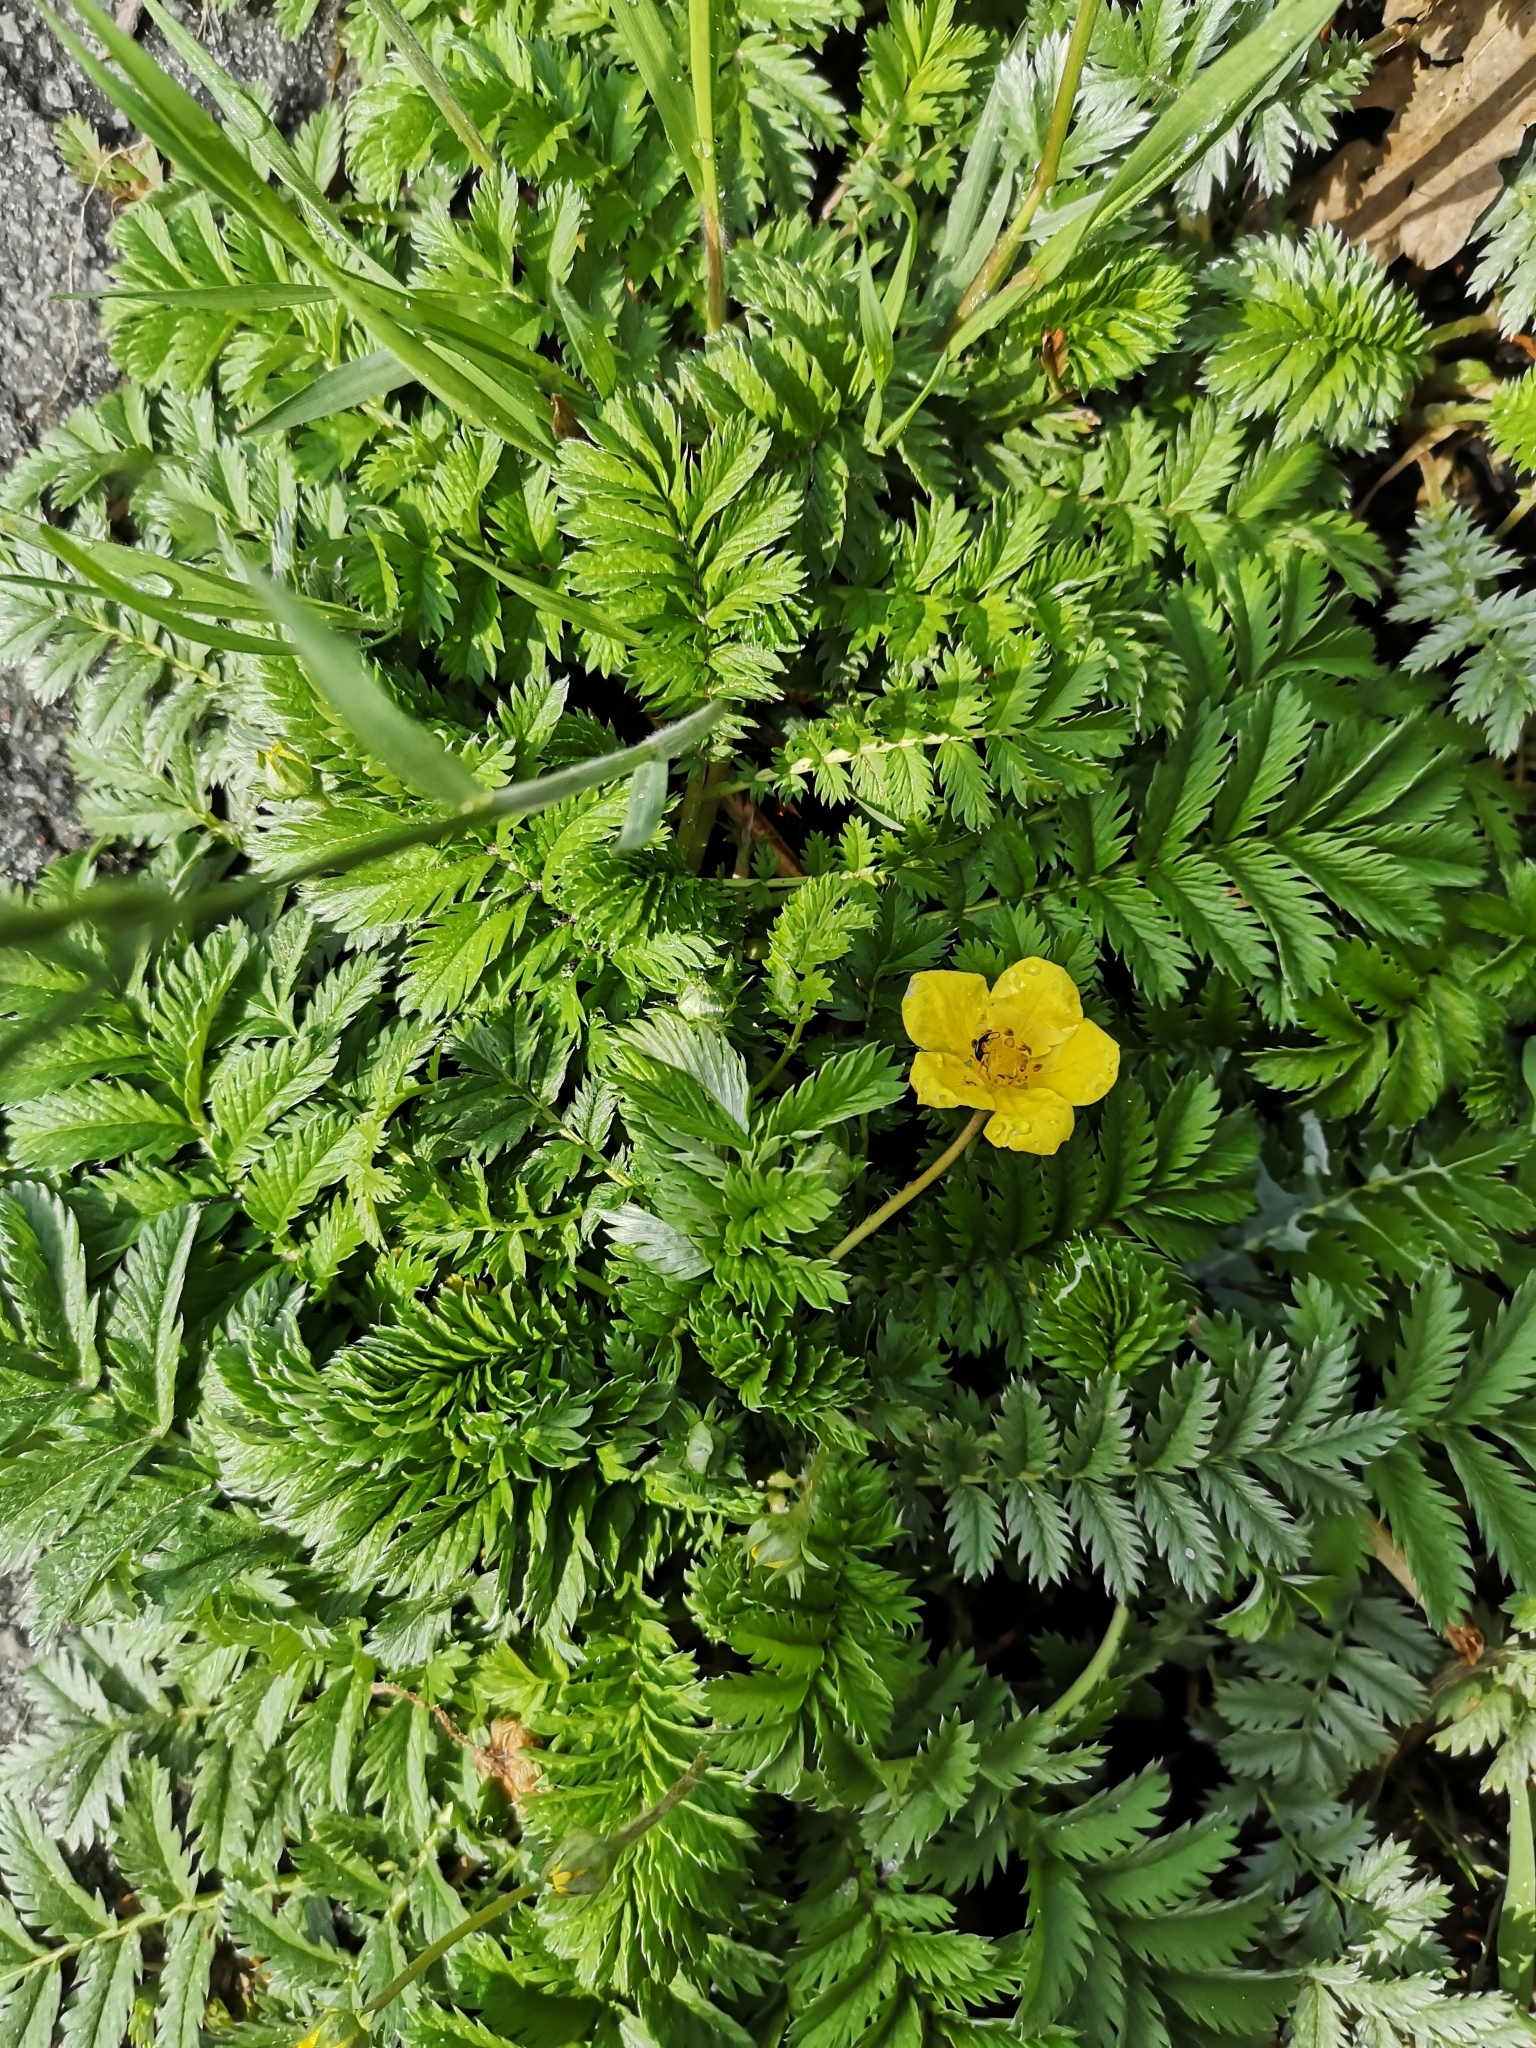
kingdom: Plantae
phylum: Tracheophyta
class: Magnoliopsida
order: Rosales
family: Rosaceae
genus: Argentina
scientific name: Argentina anserina
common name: Common silverweed
